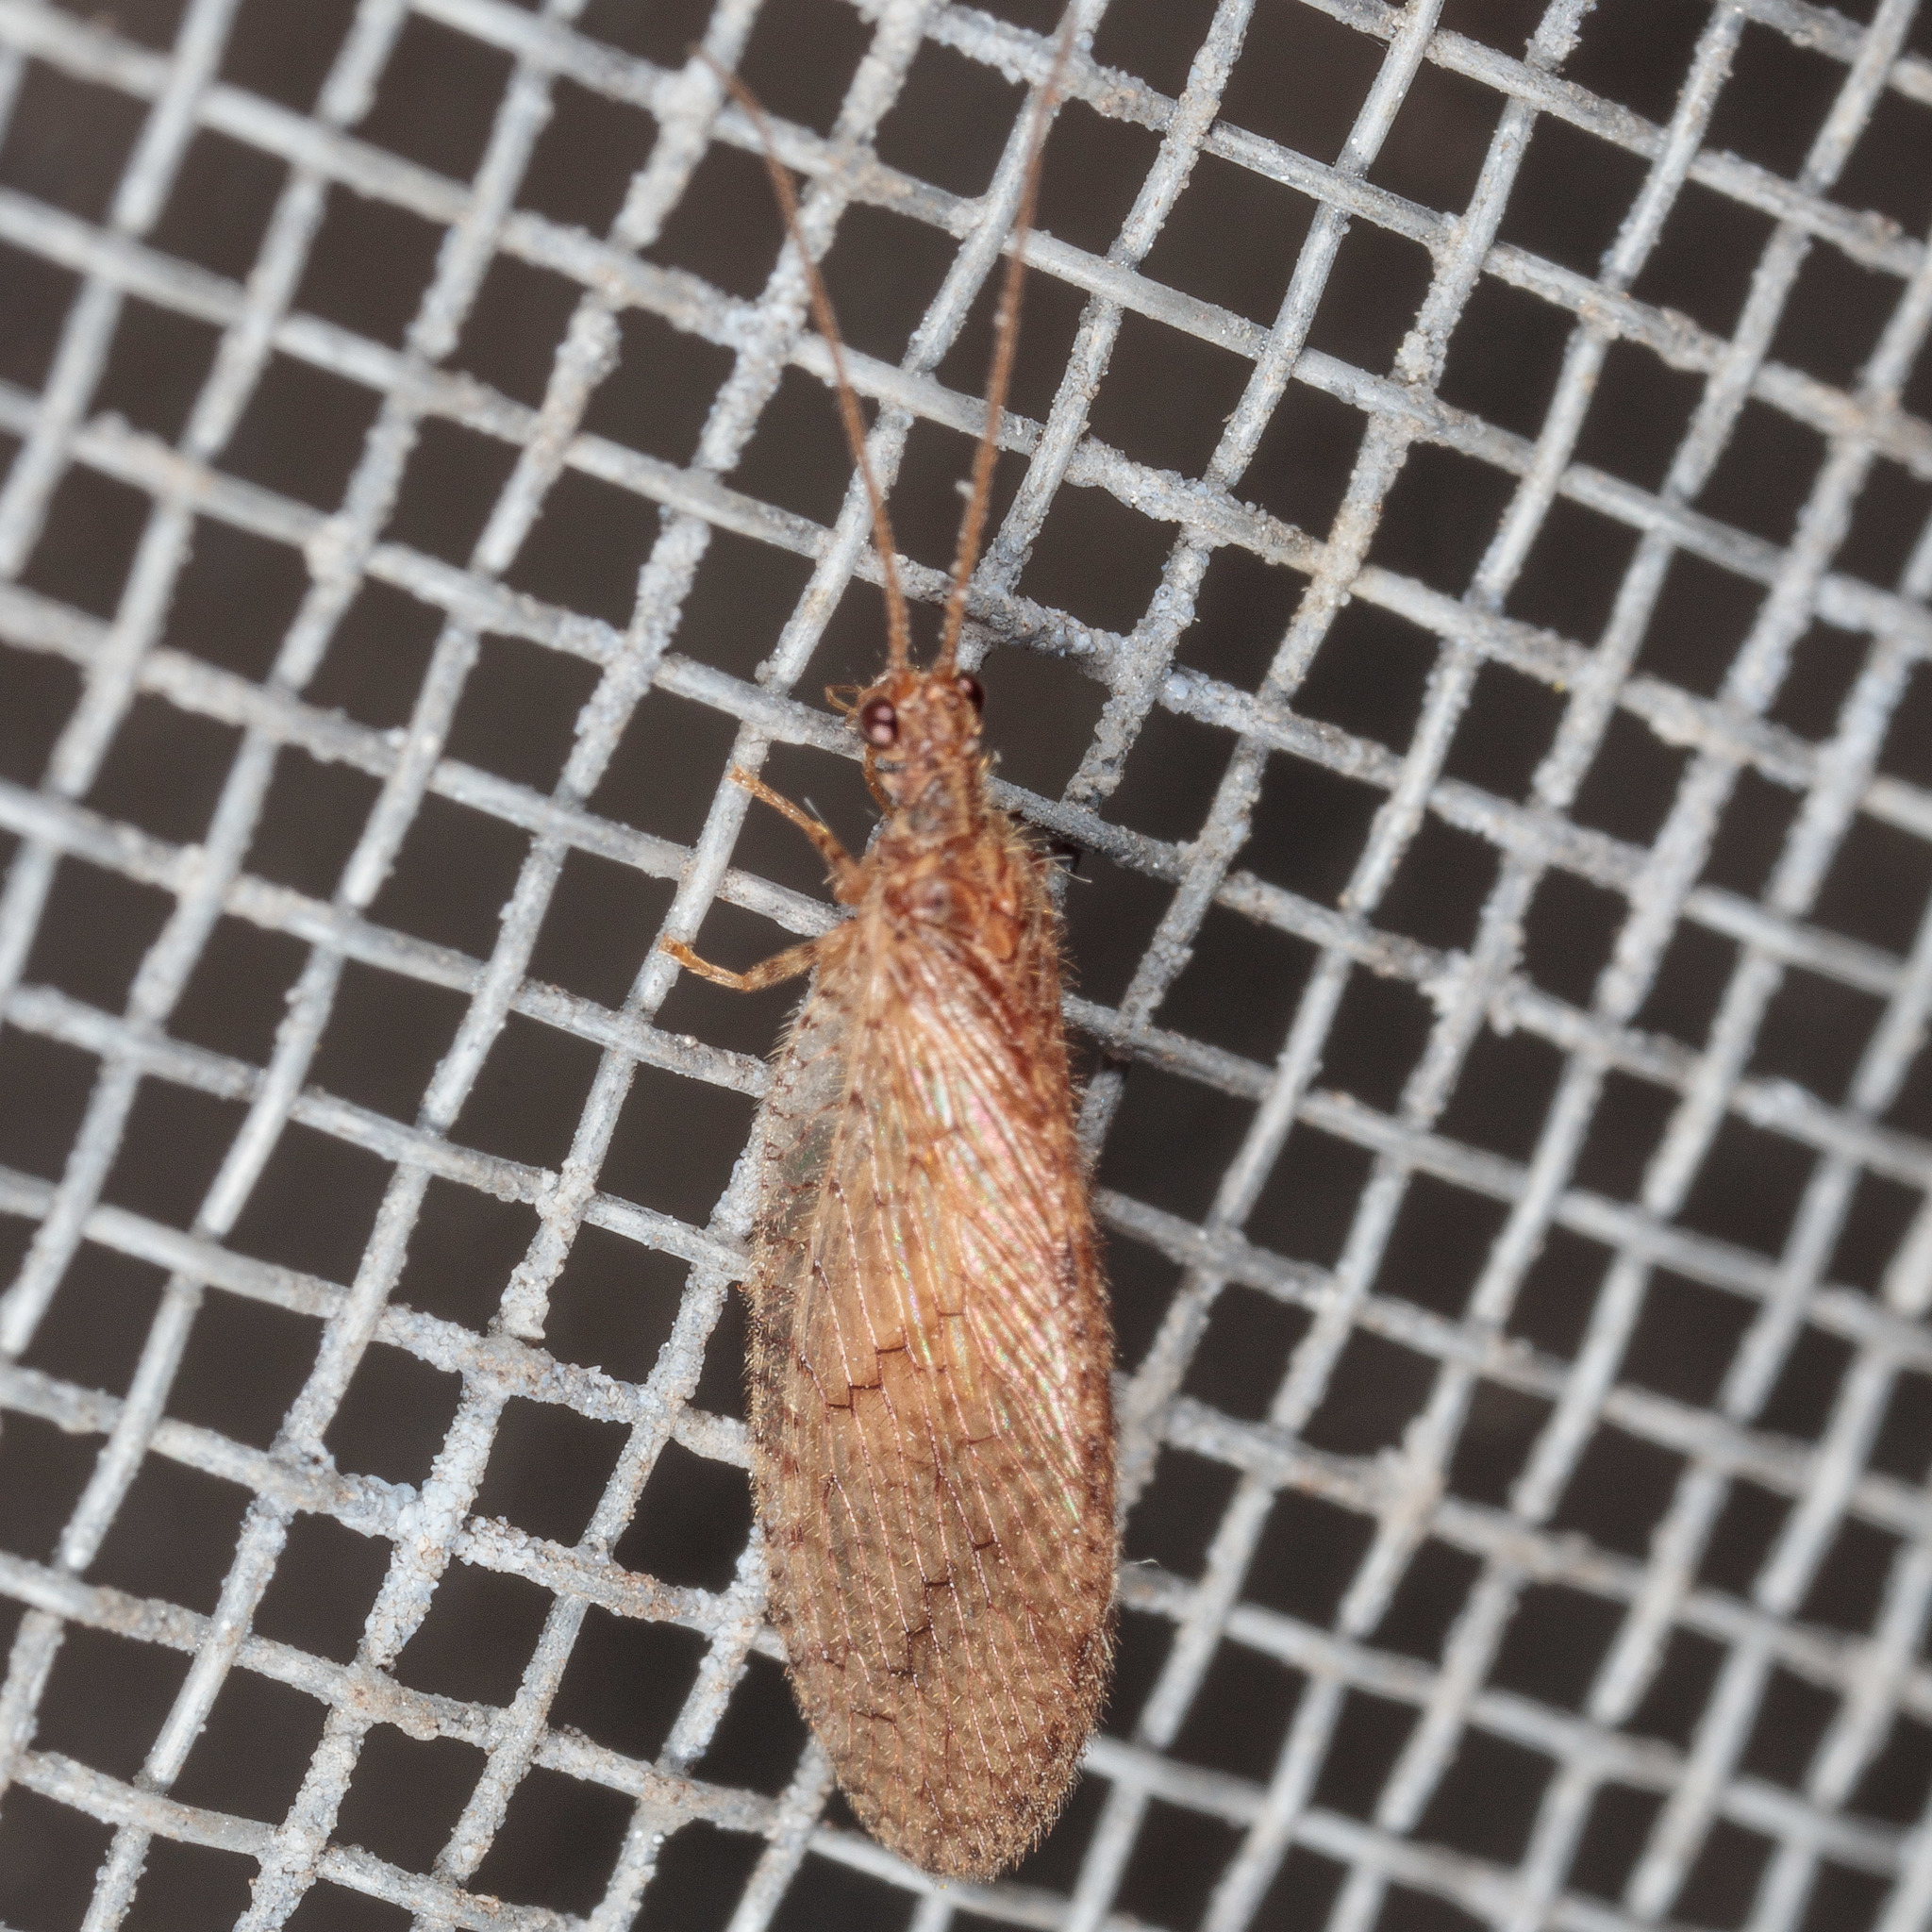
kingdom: Animalia
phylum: Arthropoda
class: Insecta
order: Neuroptera
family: Hemerobiidae
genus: Micromus
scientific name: Micromus posticus
